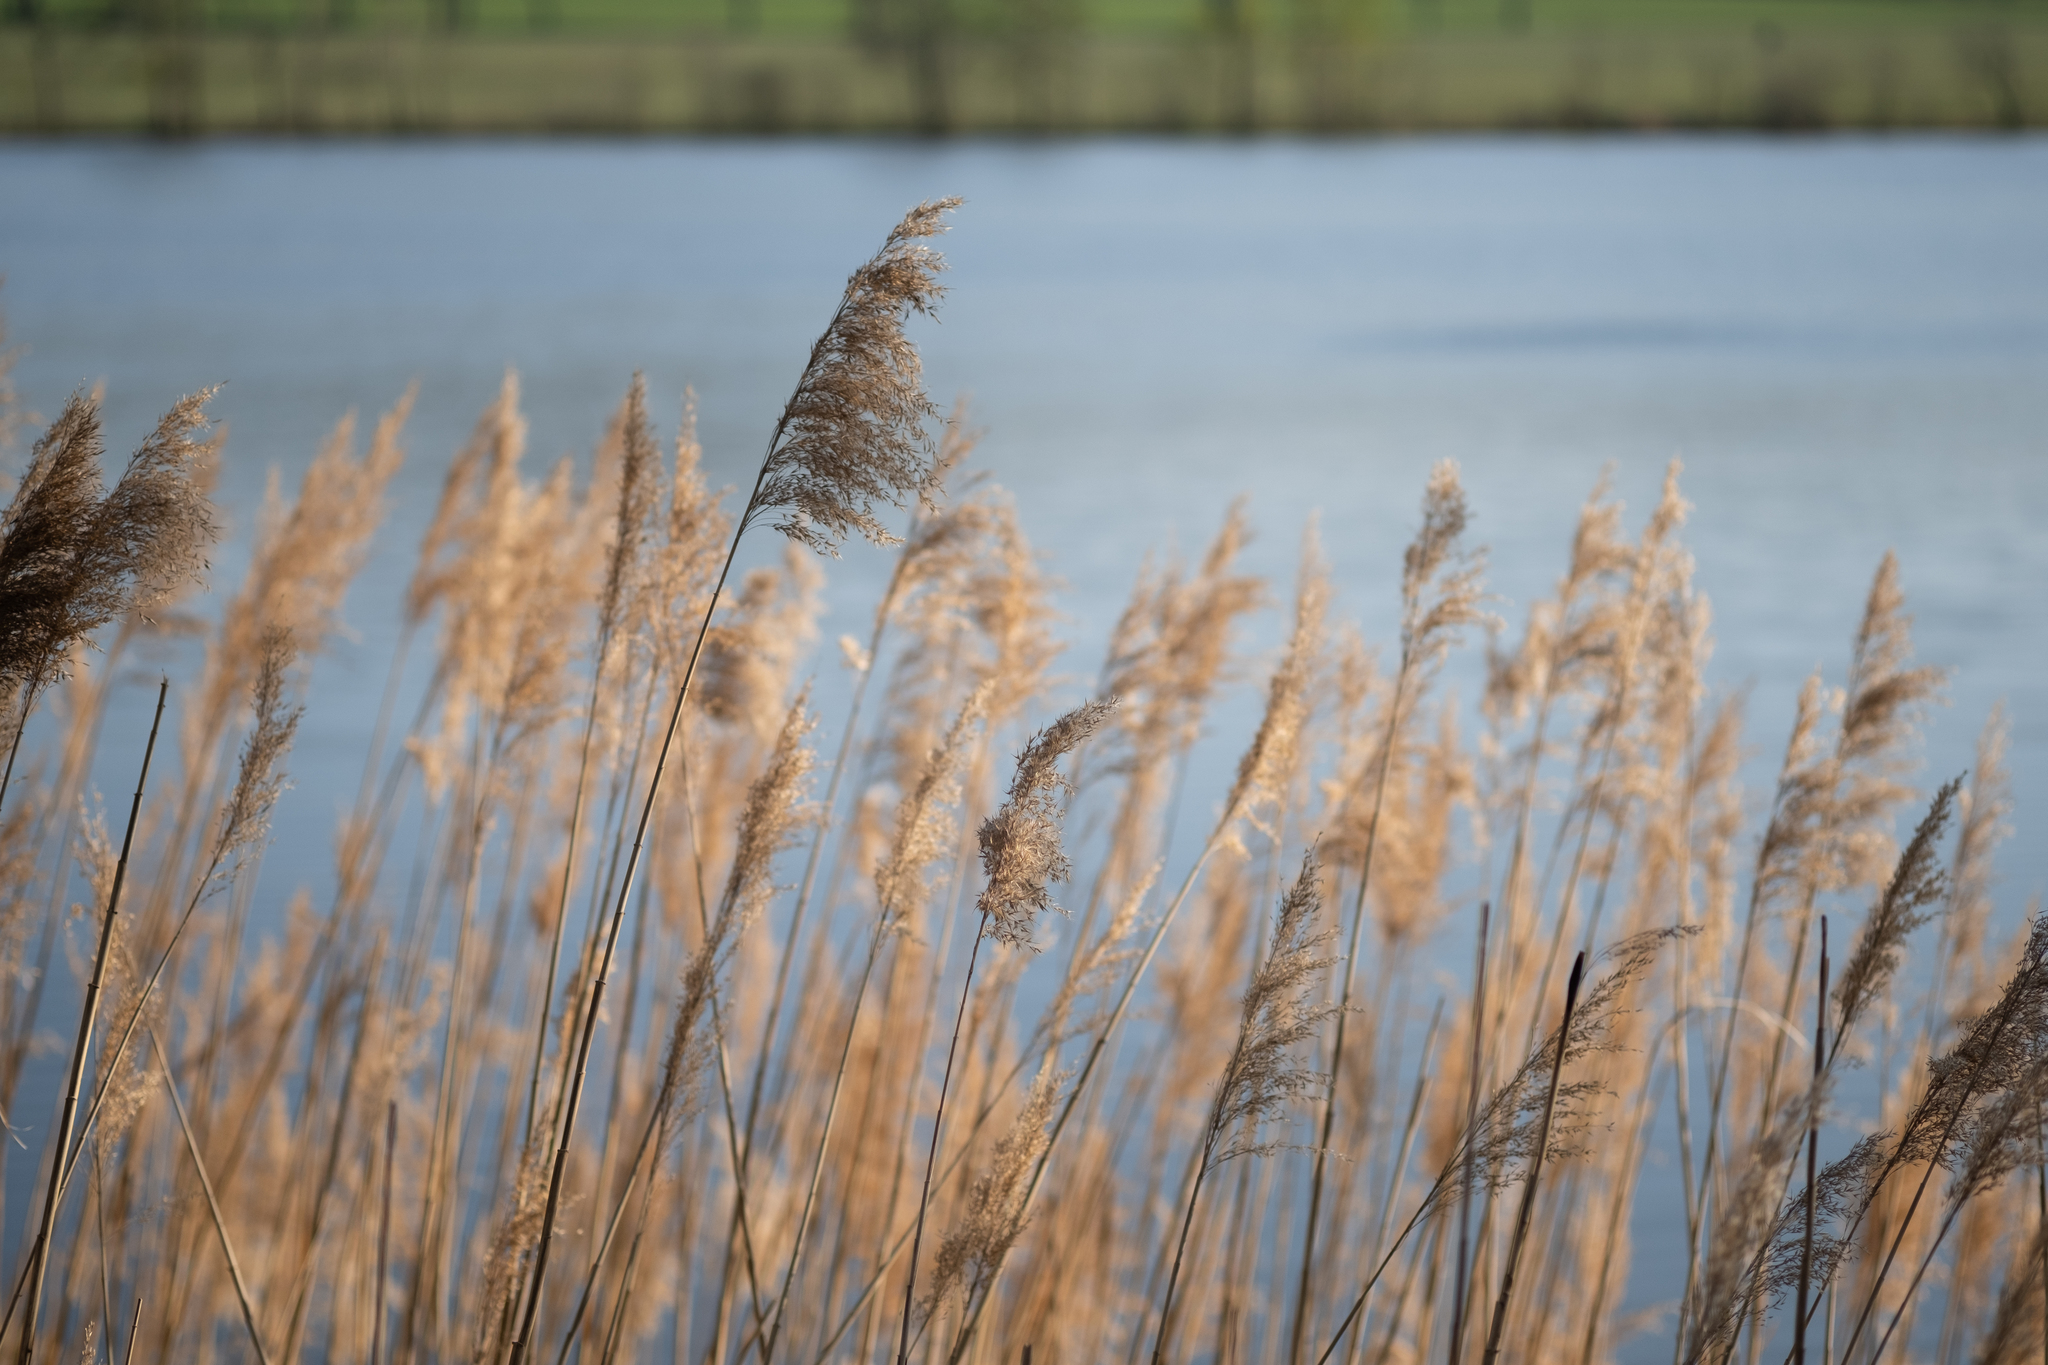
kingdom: Plantae
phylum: Tracheophyta
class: Liliopsida
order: Poales
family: Poaceae
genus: Phragmites
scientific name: Phragmites australis
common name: Common reed
